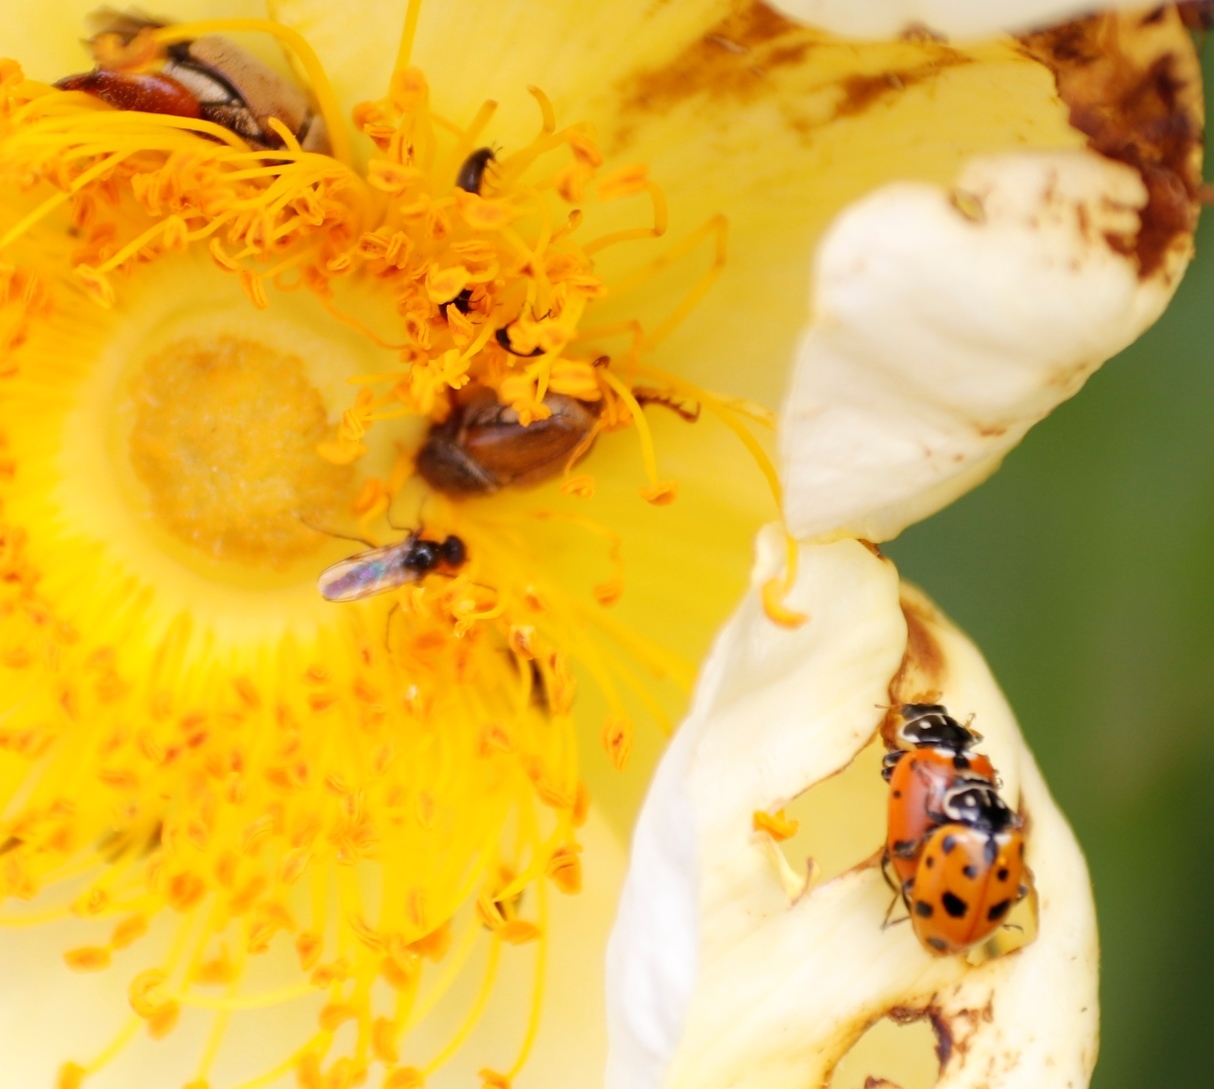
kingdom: Animalia
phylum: Arthropoda
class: Insecta
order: Coleoptera
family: Coccinellidae
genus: Hippodamia
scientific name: Hippodamia variegata
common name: Ladybird beetle
